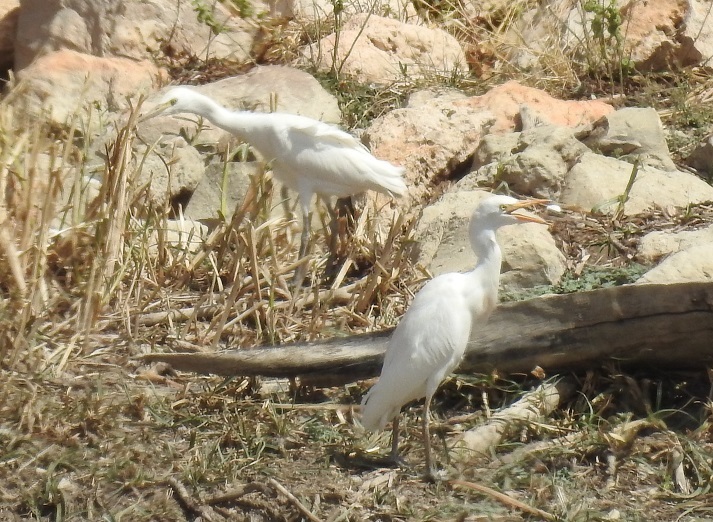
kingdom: Animalia
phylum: Chordata
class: Aves
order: Pelecaniformes
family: Ardeidae
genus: Bubulcus
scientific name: Bubulcus ibis
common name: Cattle egret
